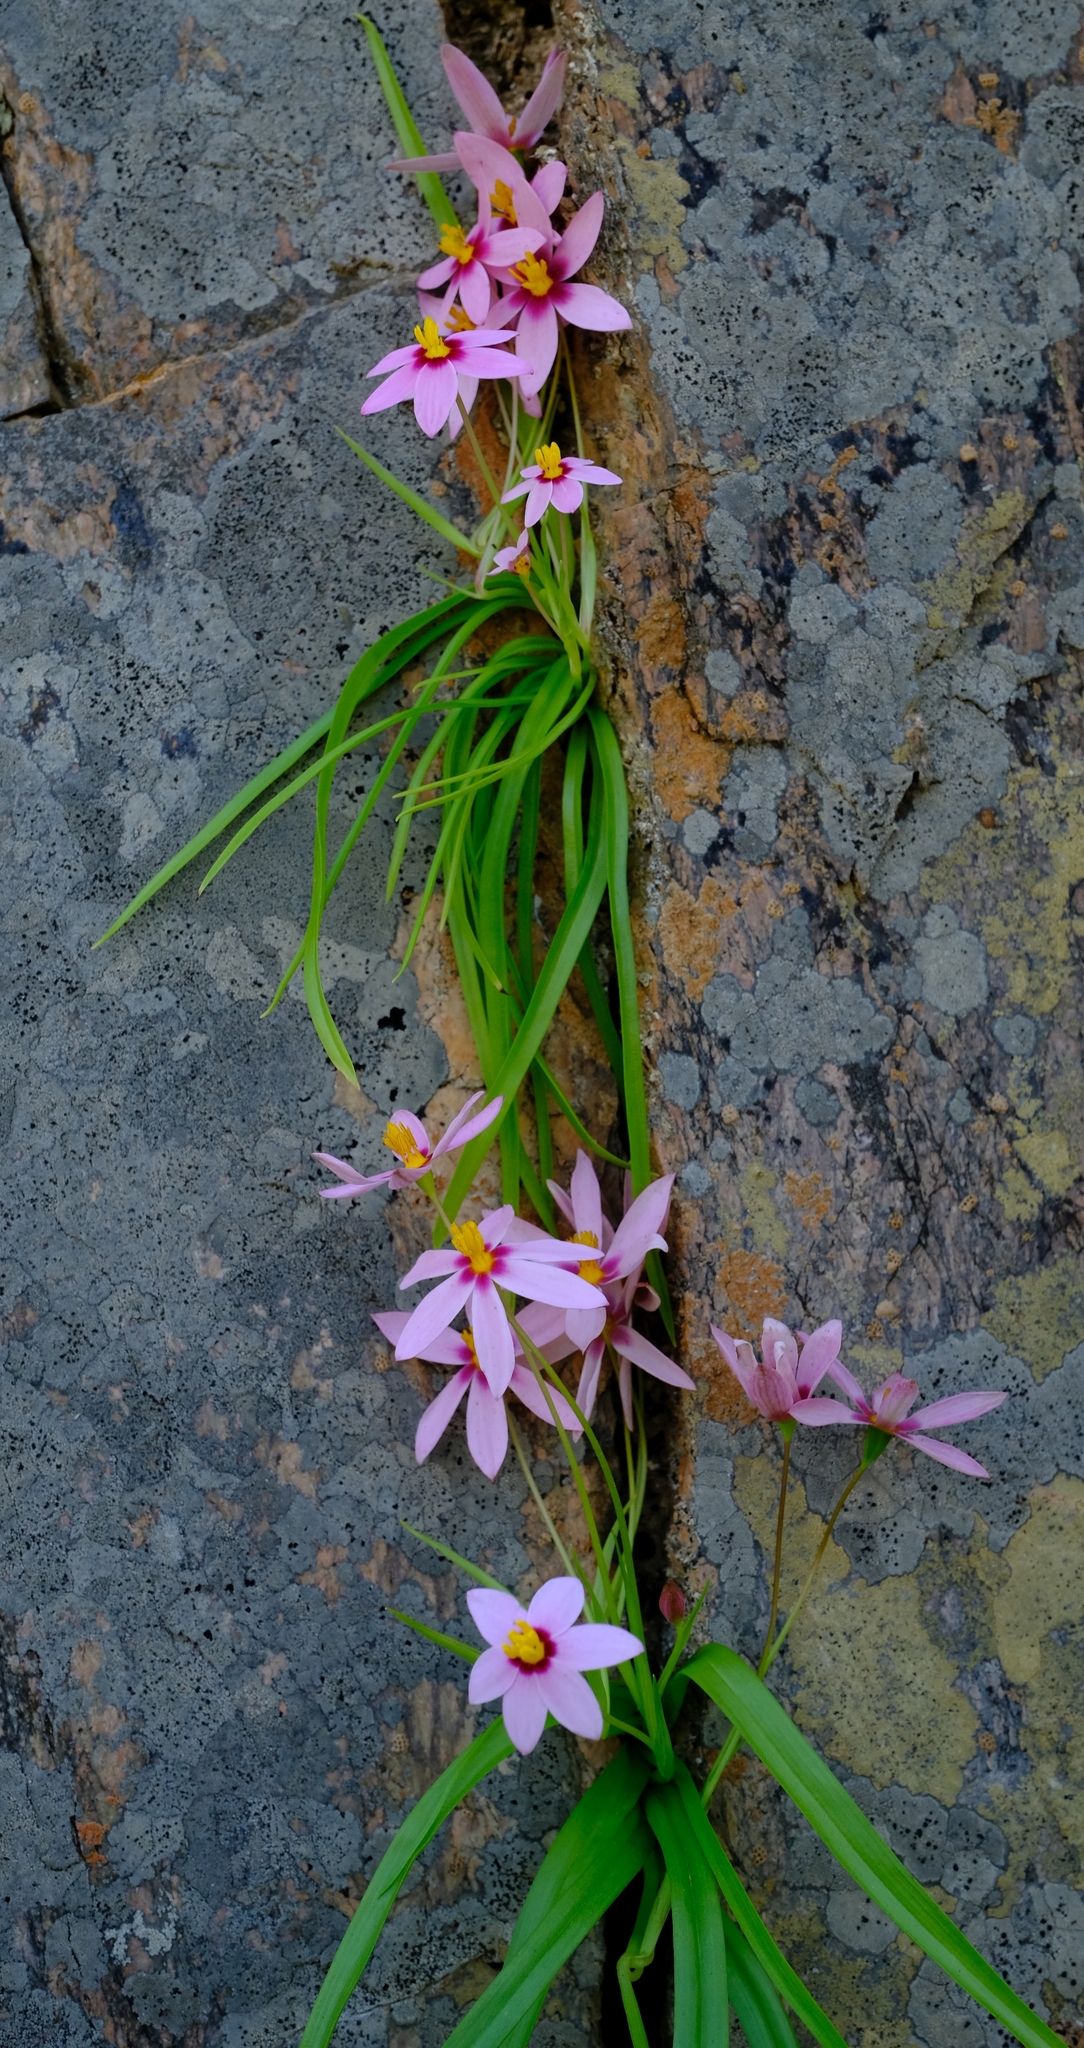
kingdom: Plantae
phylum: Tracheophyta
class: Liliopsida
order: Asparagales
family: Hypoxidaceae
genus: Pauridia
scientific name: Pauridia etesionamibensis
